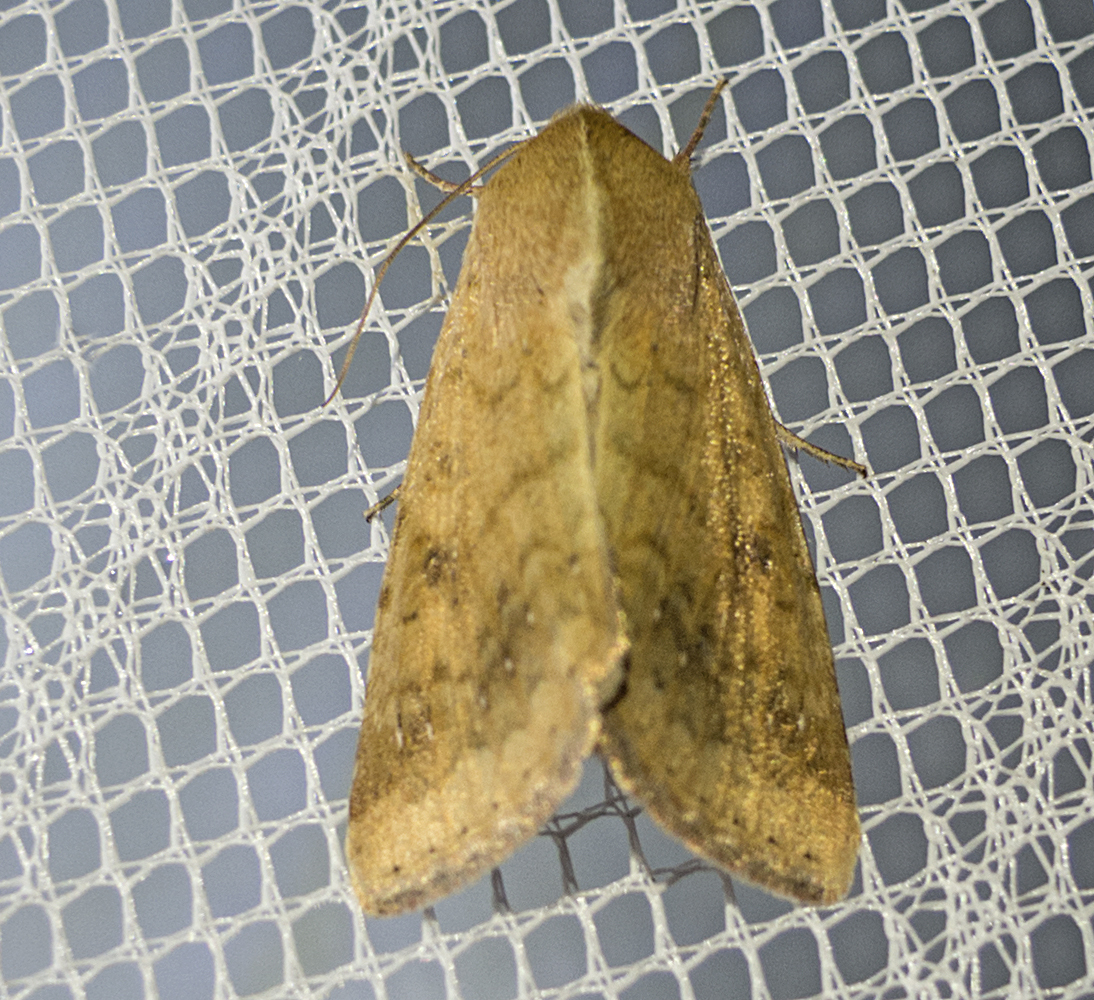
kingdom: Animalia
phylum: Arthropoda
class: Insecta
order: Lepidoptera
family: Noctuidae
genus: Helicoverpa
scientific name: Helicoverpa armigera
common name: Cotton bollworm
